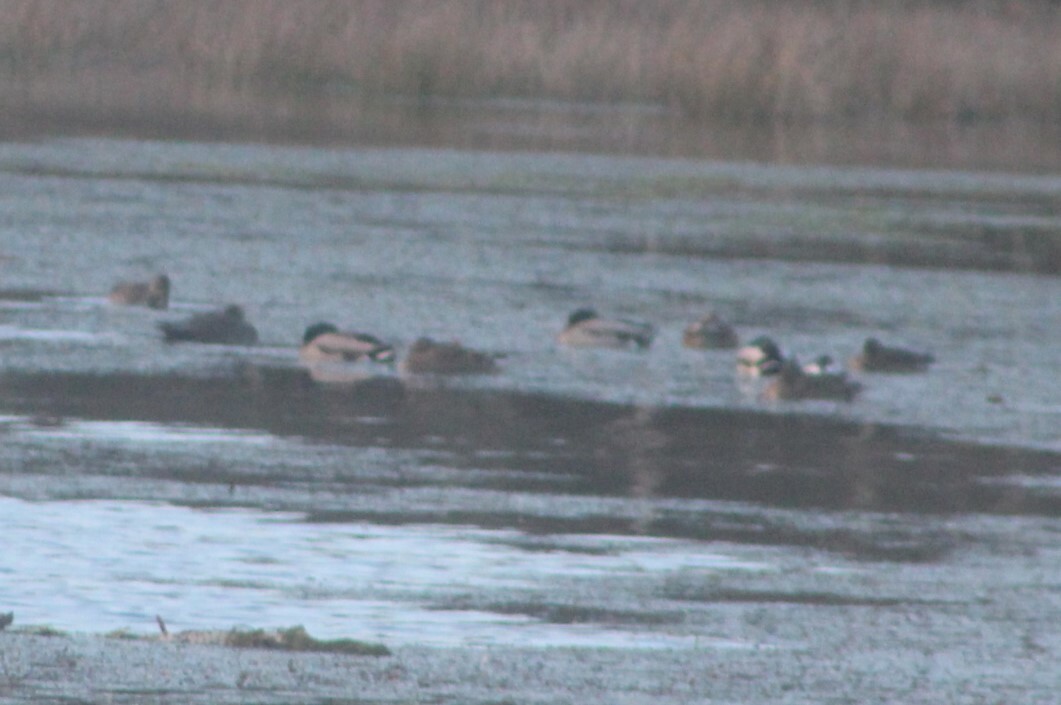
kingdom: Animalia
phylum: Chordata
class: Aves
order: Anseriformes
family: Anatidae
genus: Anas
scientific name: Anas platyrhynchos
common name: Mallard
